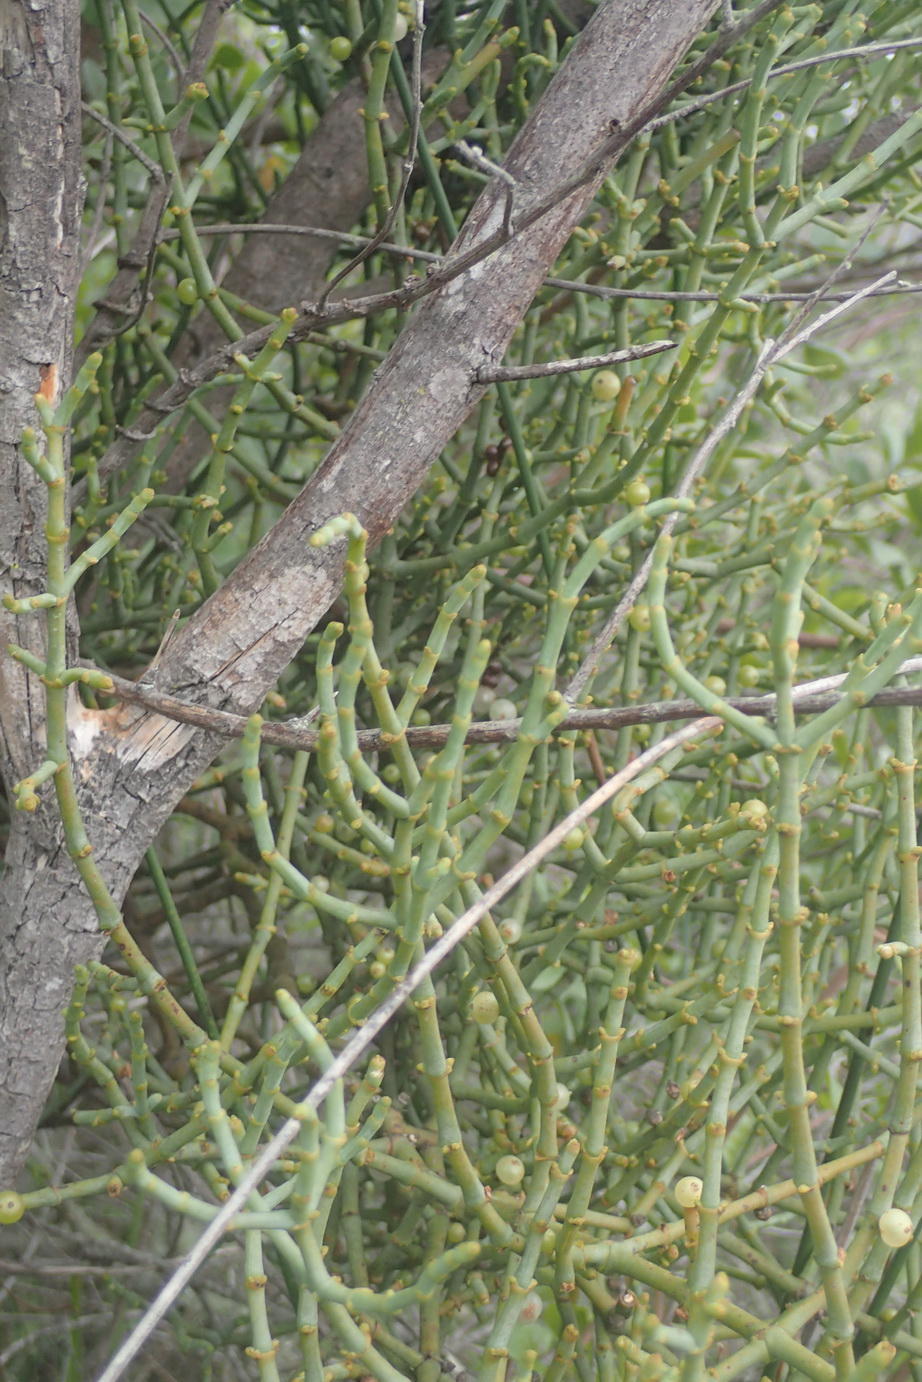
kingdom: Plantae
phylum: Tracheophyta
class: Magnoliopsida
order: Santalales
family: Viscaceae
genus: Viscum
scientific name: Viscum capense
